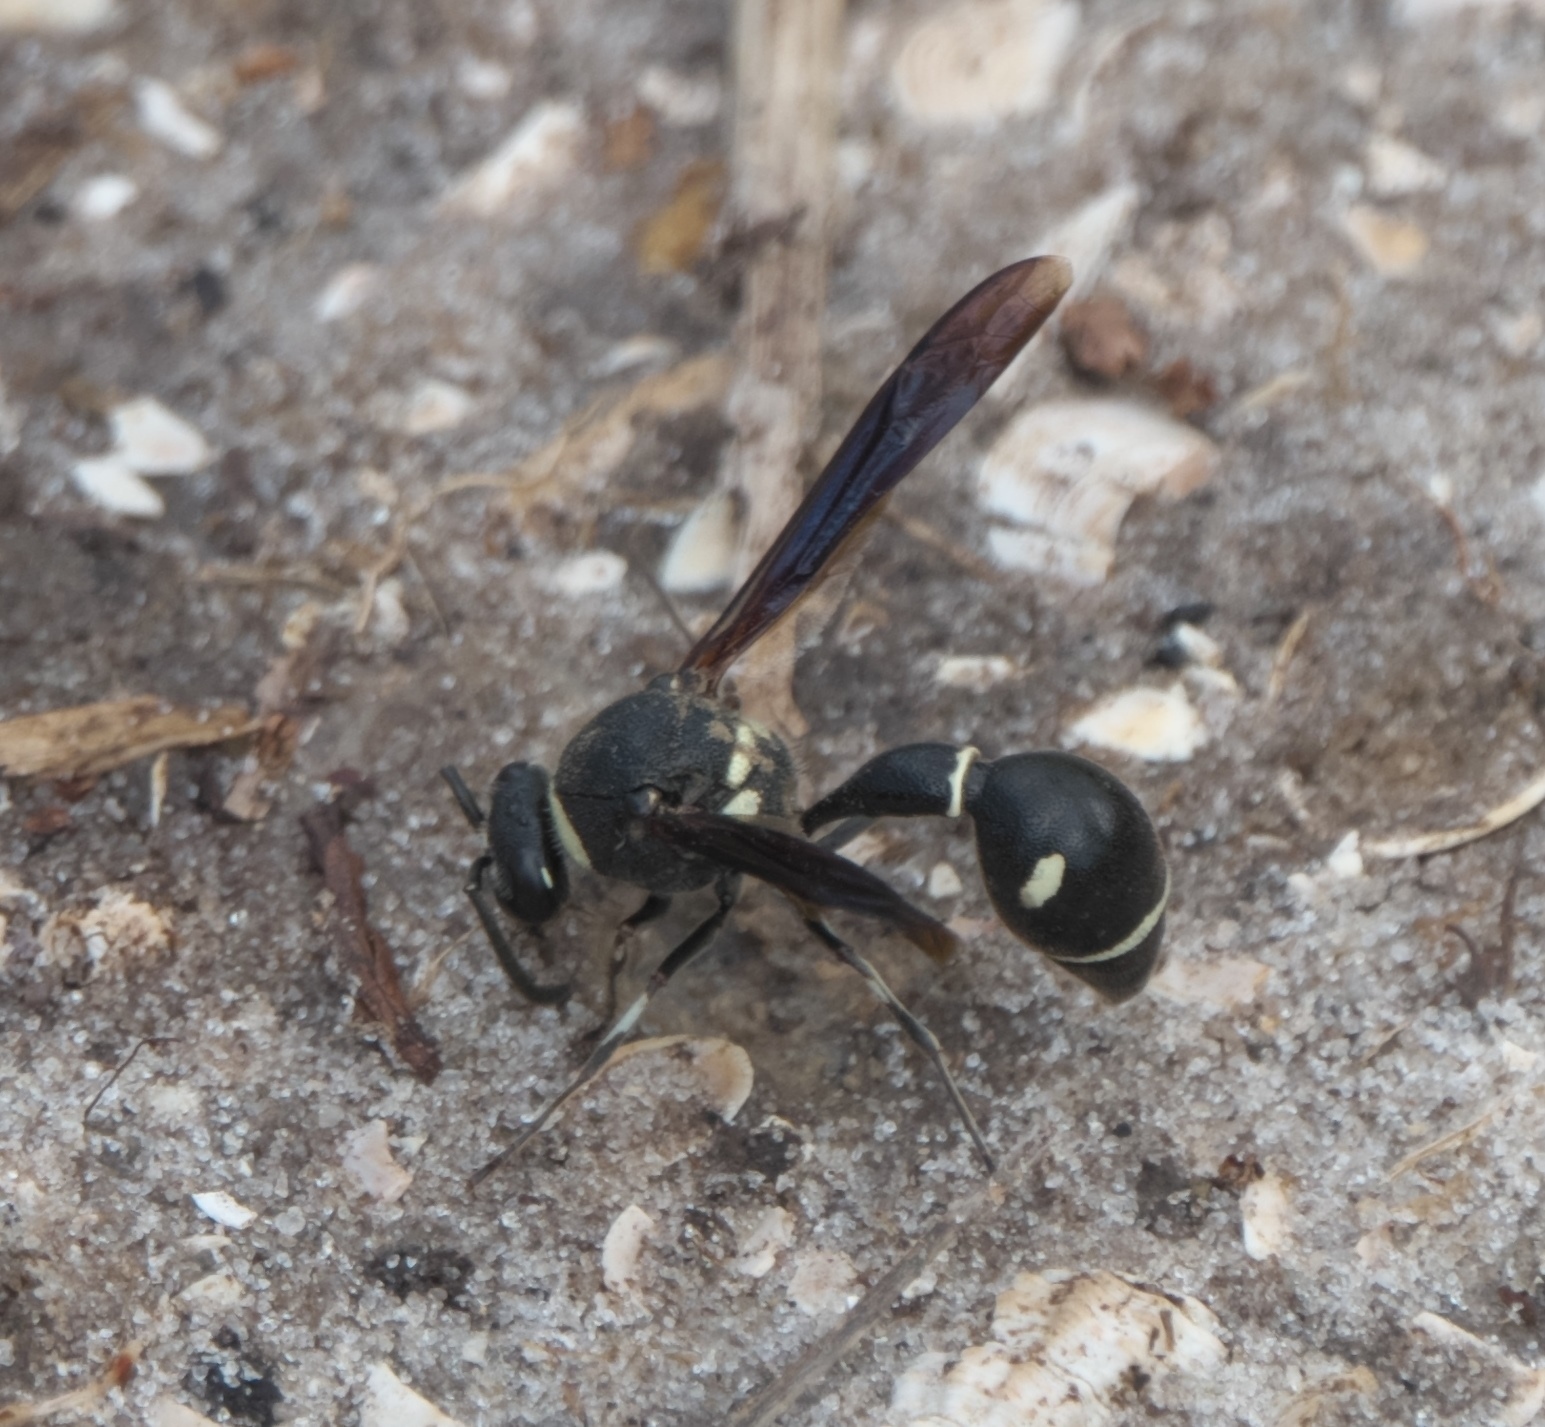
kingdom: Animalia
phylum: Arthropoda
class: Insecta
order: Hymenoptera
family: Vespidae
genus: Eumenes
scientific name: Eumenes fraternus
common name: Fraternal potter wasp
